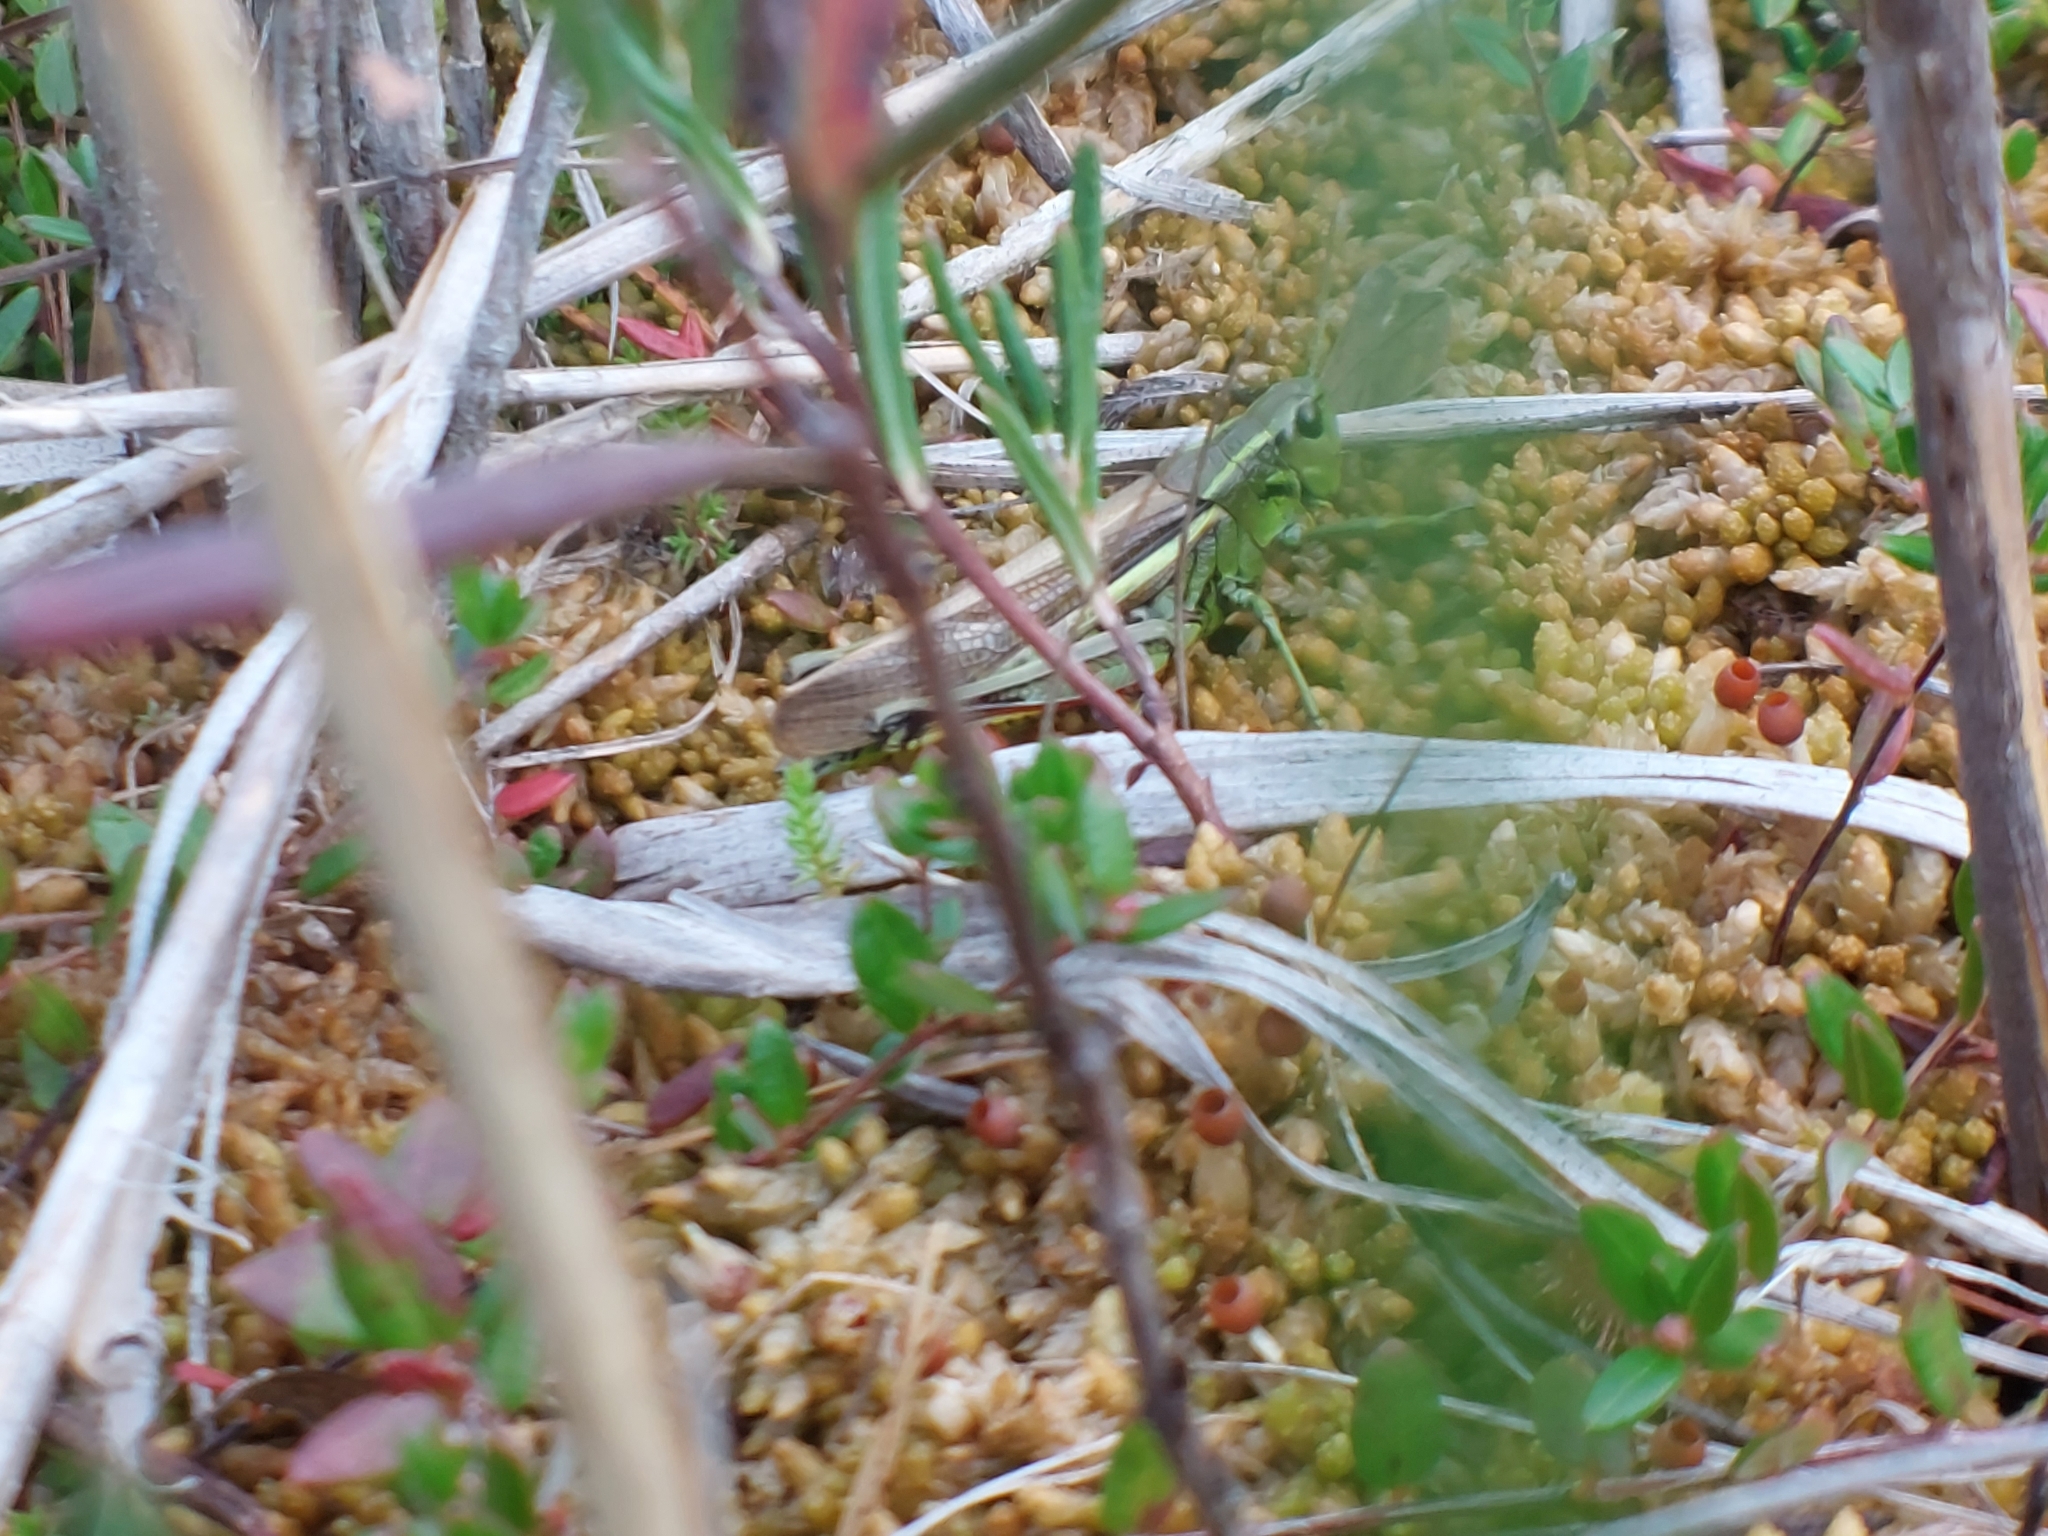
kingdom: Animalia
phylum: Arthropoda
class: Insecta
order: Orthoptera
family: Acrididae
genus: Stethophyma
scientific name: Stethophyma grossum
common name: Large marsh grasshopper
